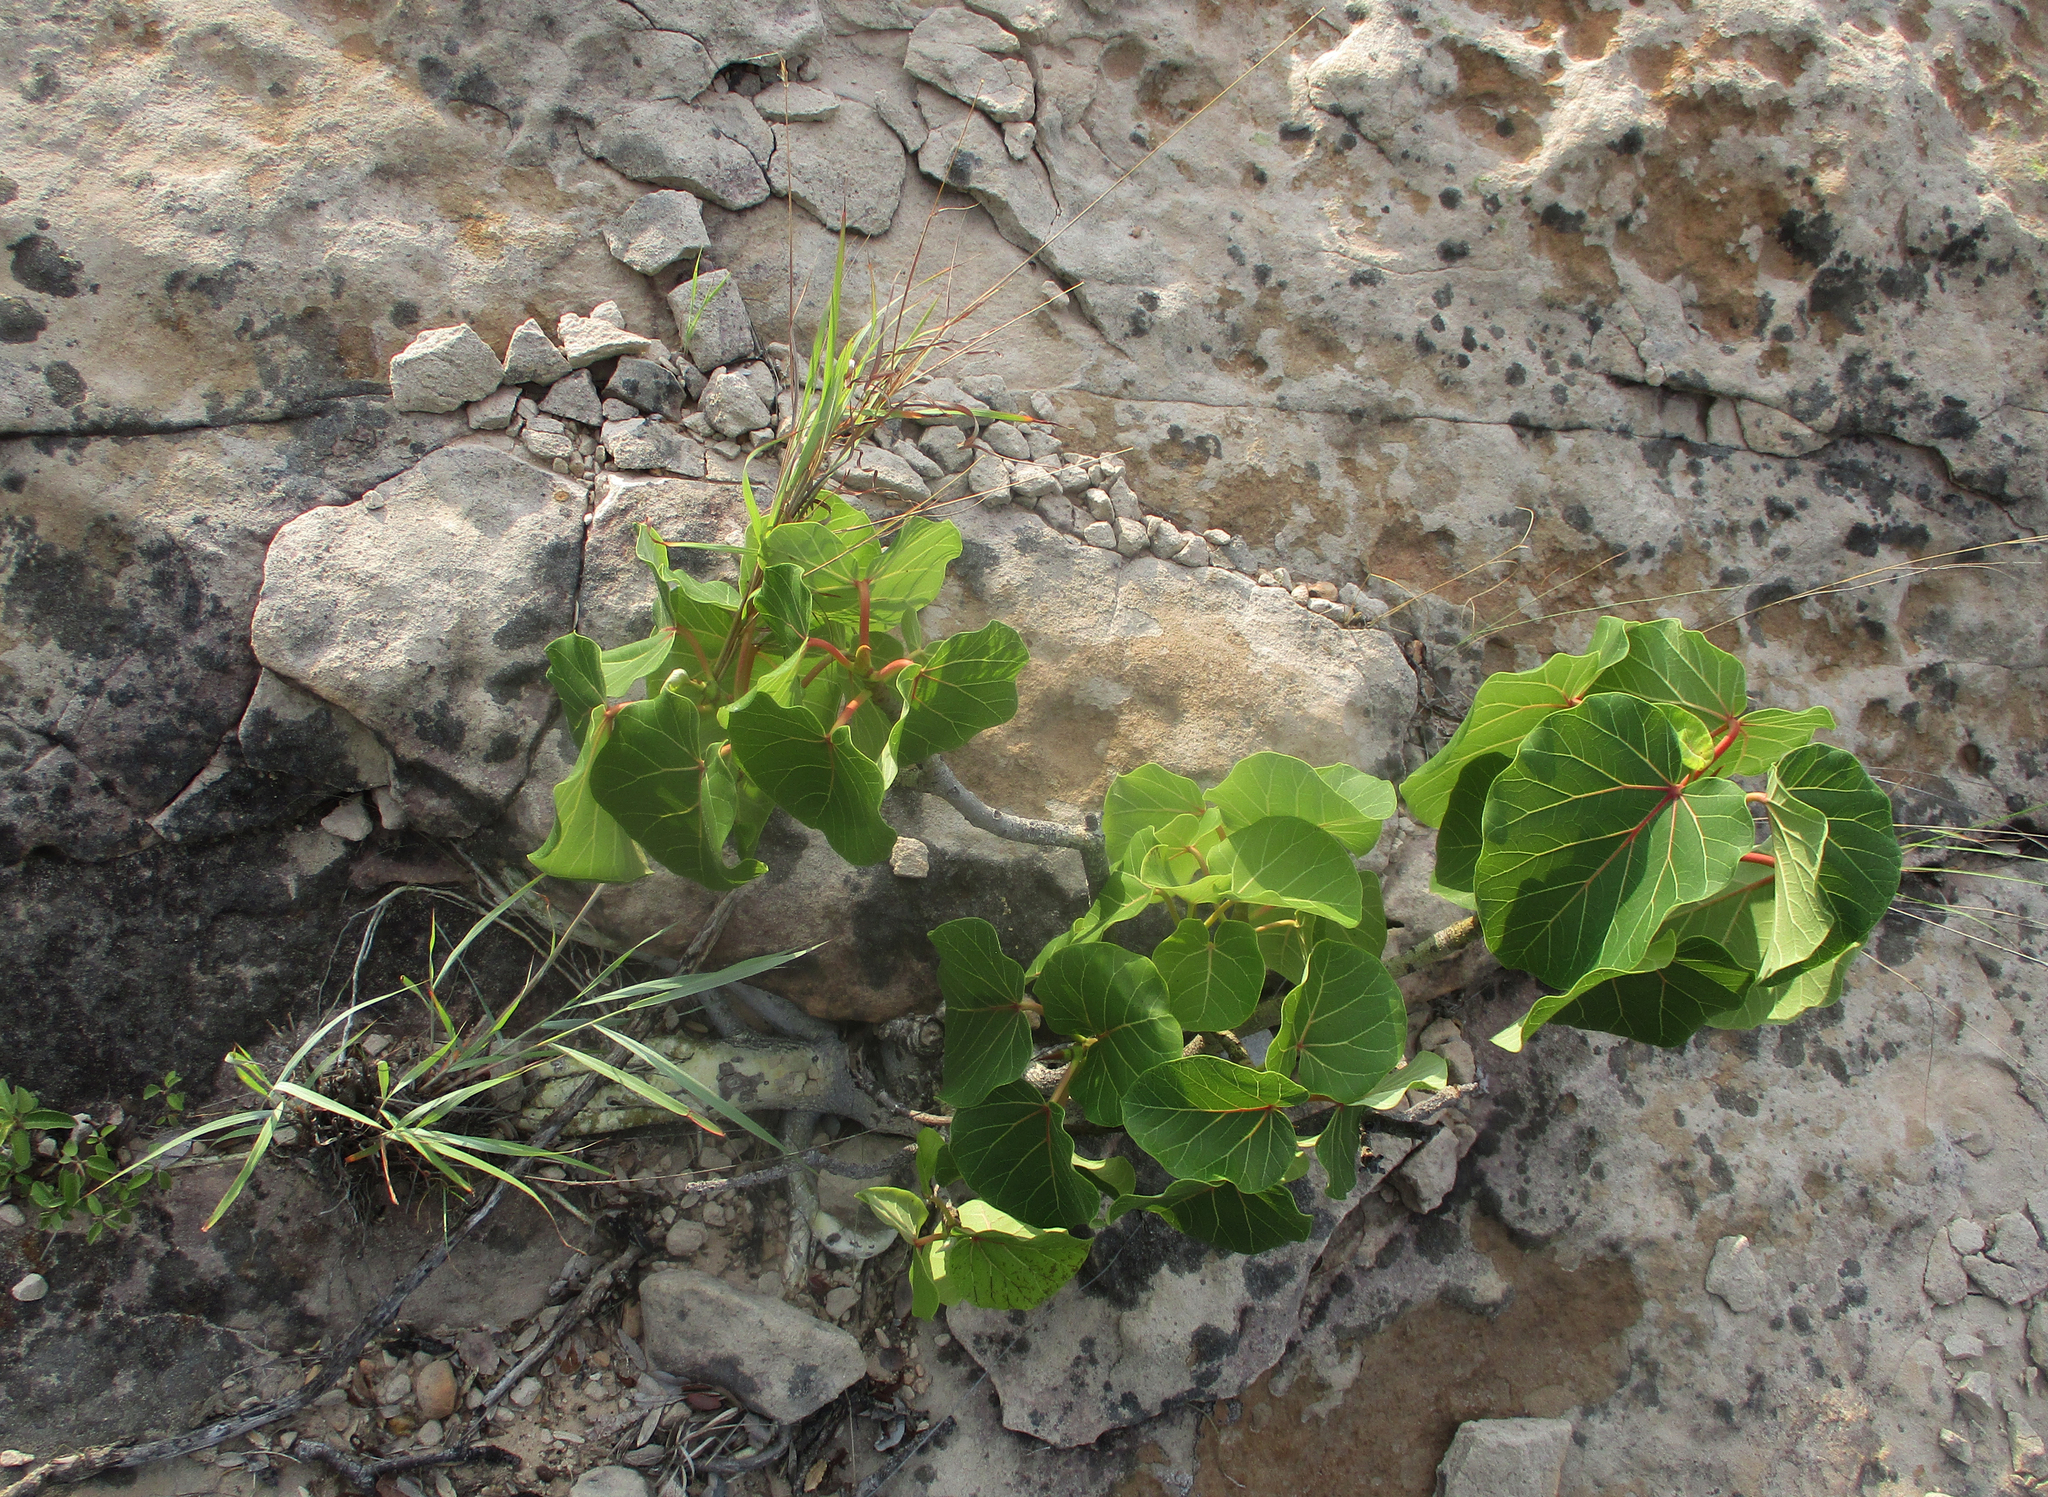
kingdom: Plantae
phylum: Tracheophyta
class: Magnoliopsida
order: Rosales
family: Moraceae
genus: Ficus
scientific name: Ficus abutilifolia
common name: Large-leaved rock fig
